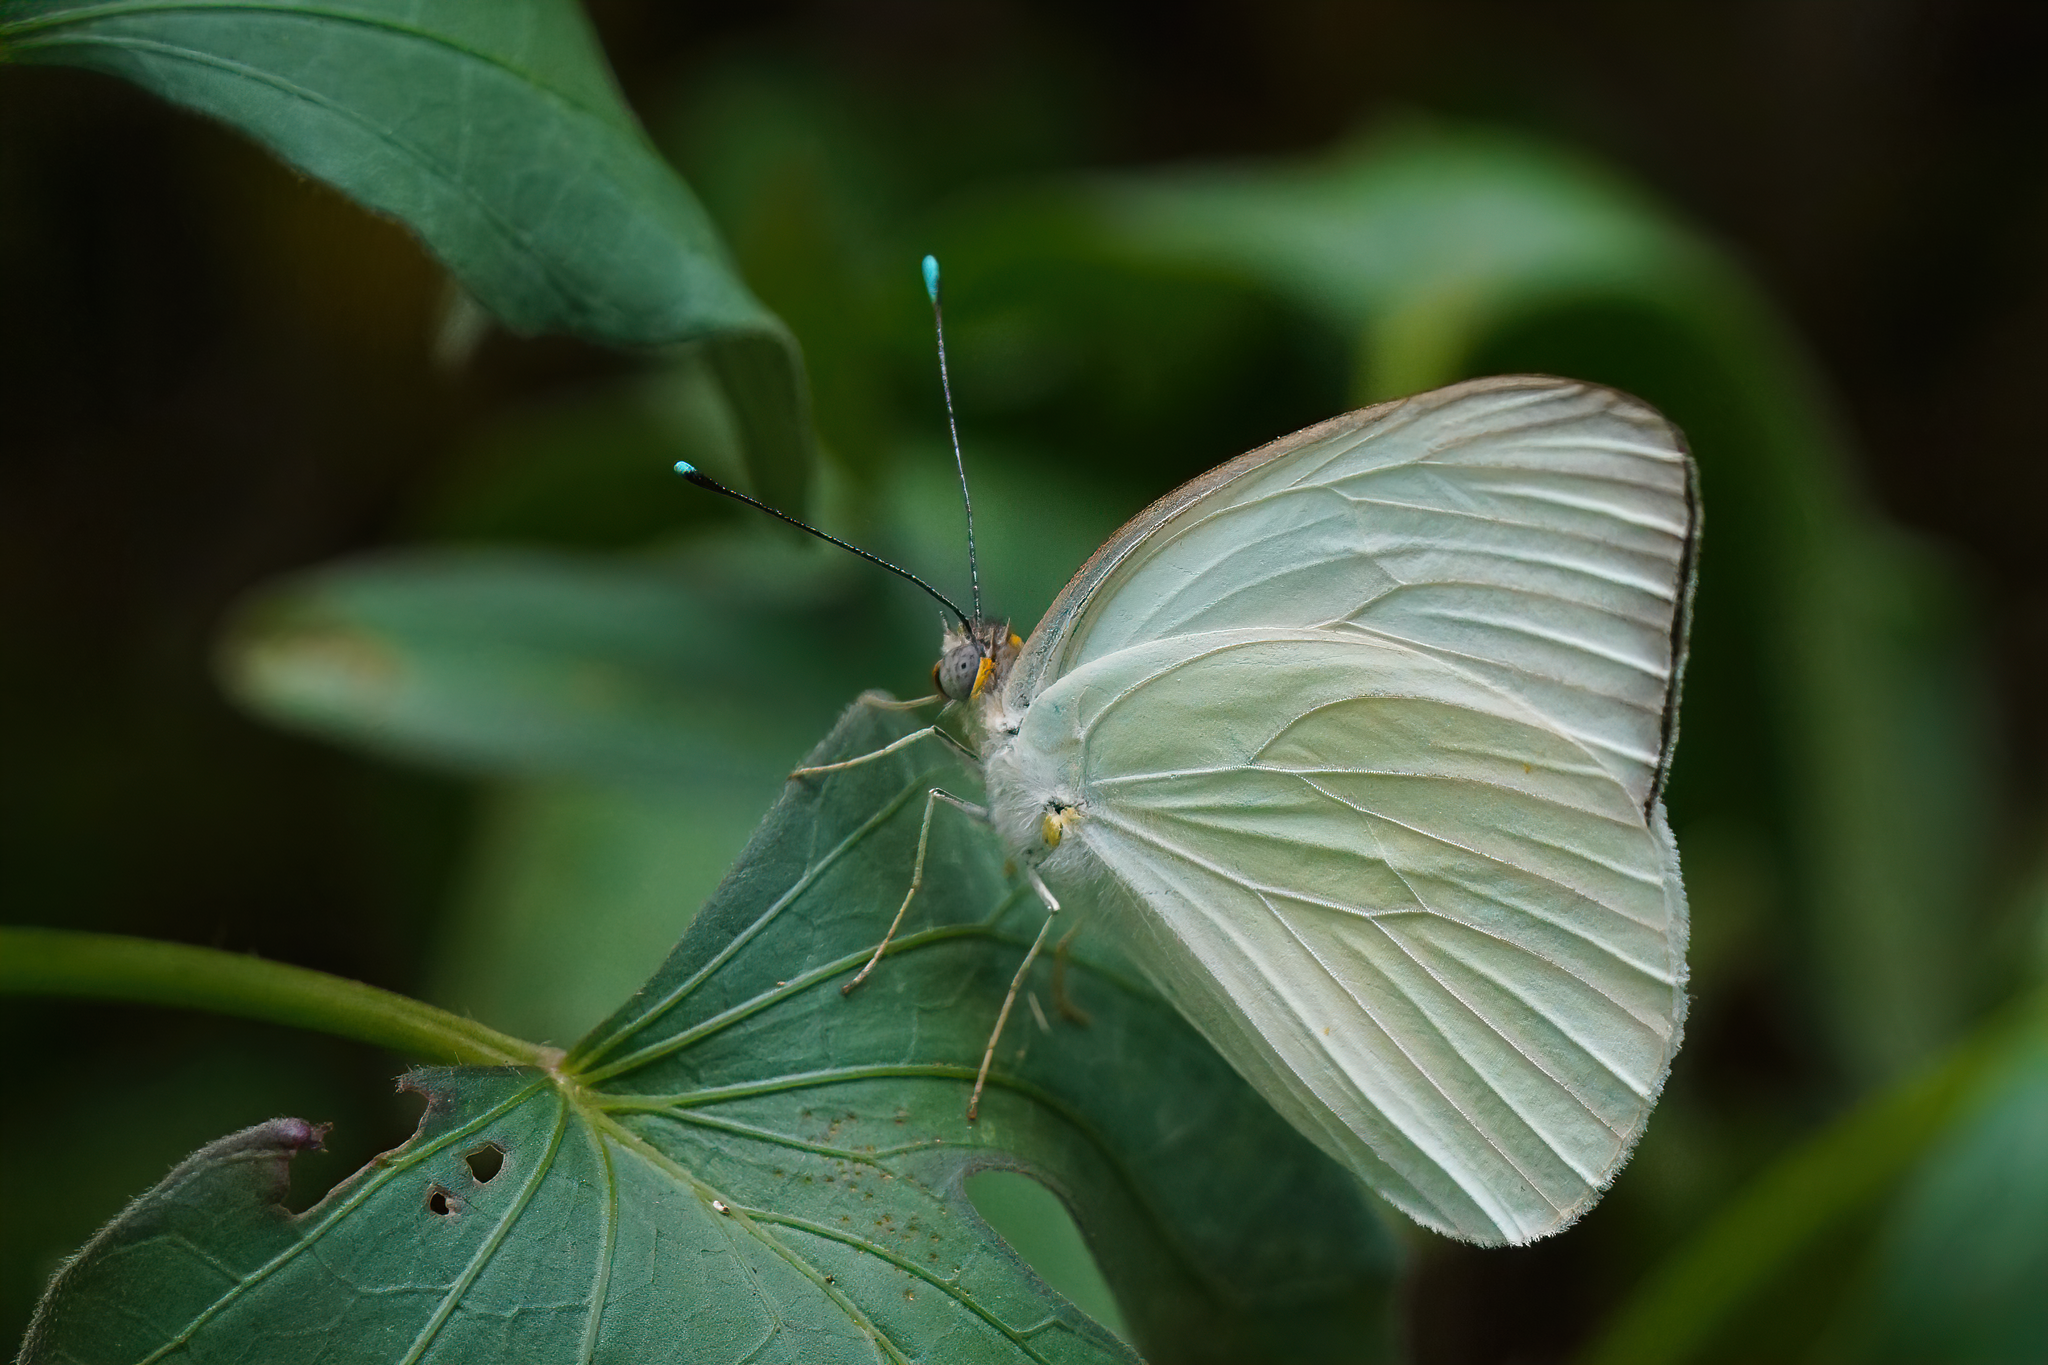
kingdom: Animalia
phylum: Arthropoda
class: Insecta
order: Lepidoptera
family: Pieridae
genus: Ascia
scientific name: Ascia monuste
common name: Great southern white
